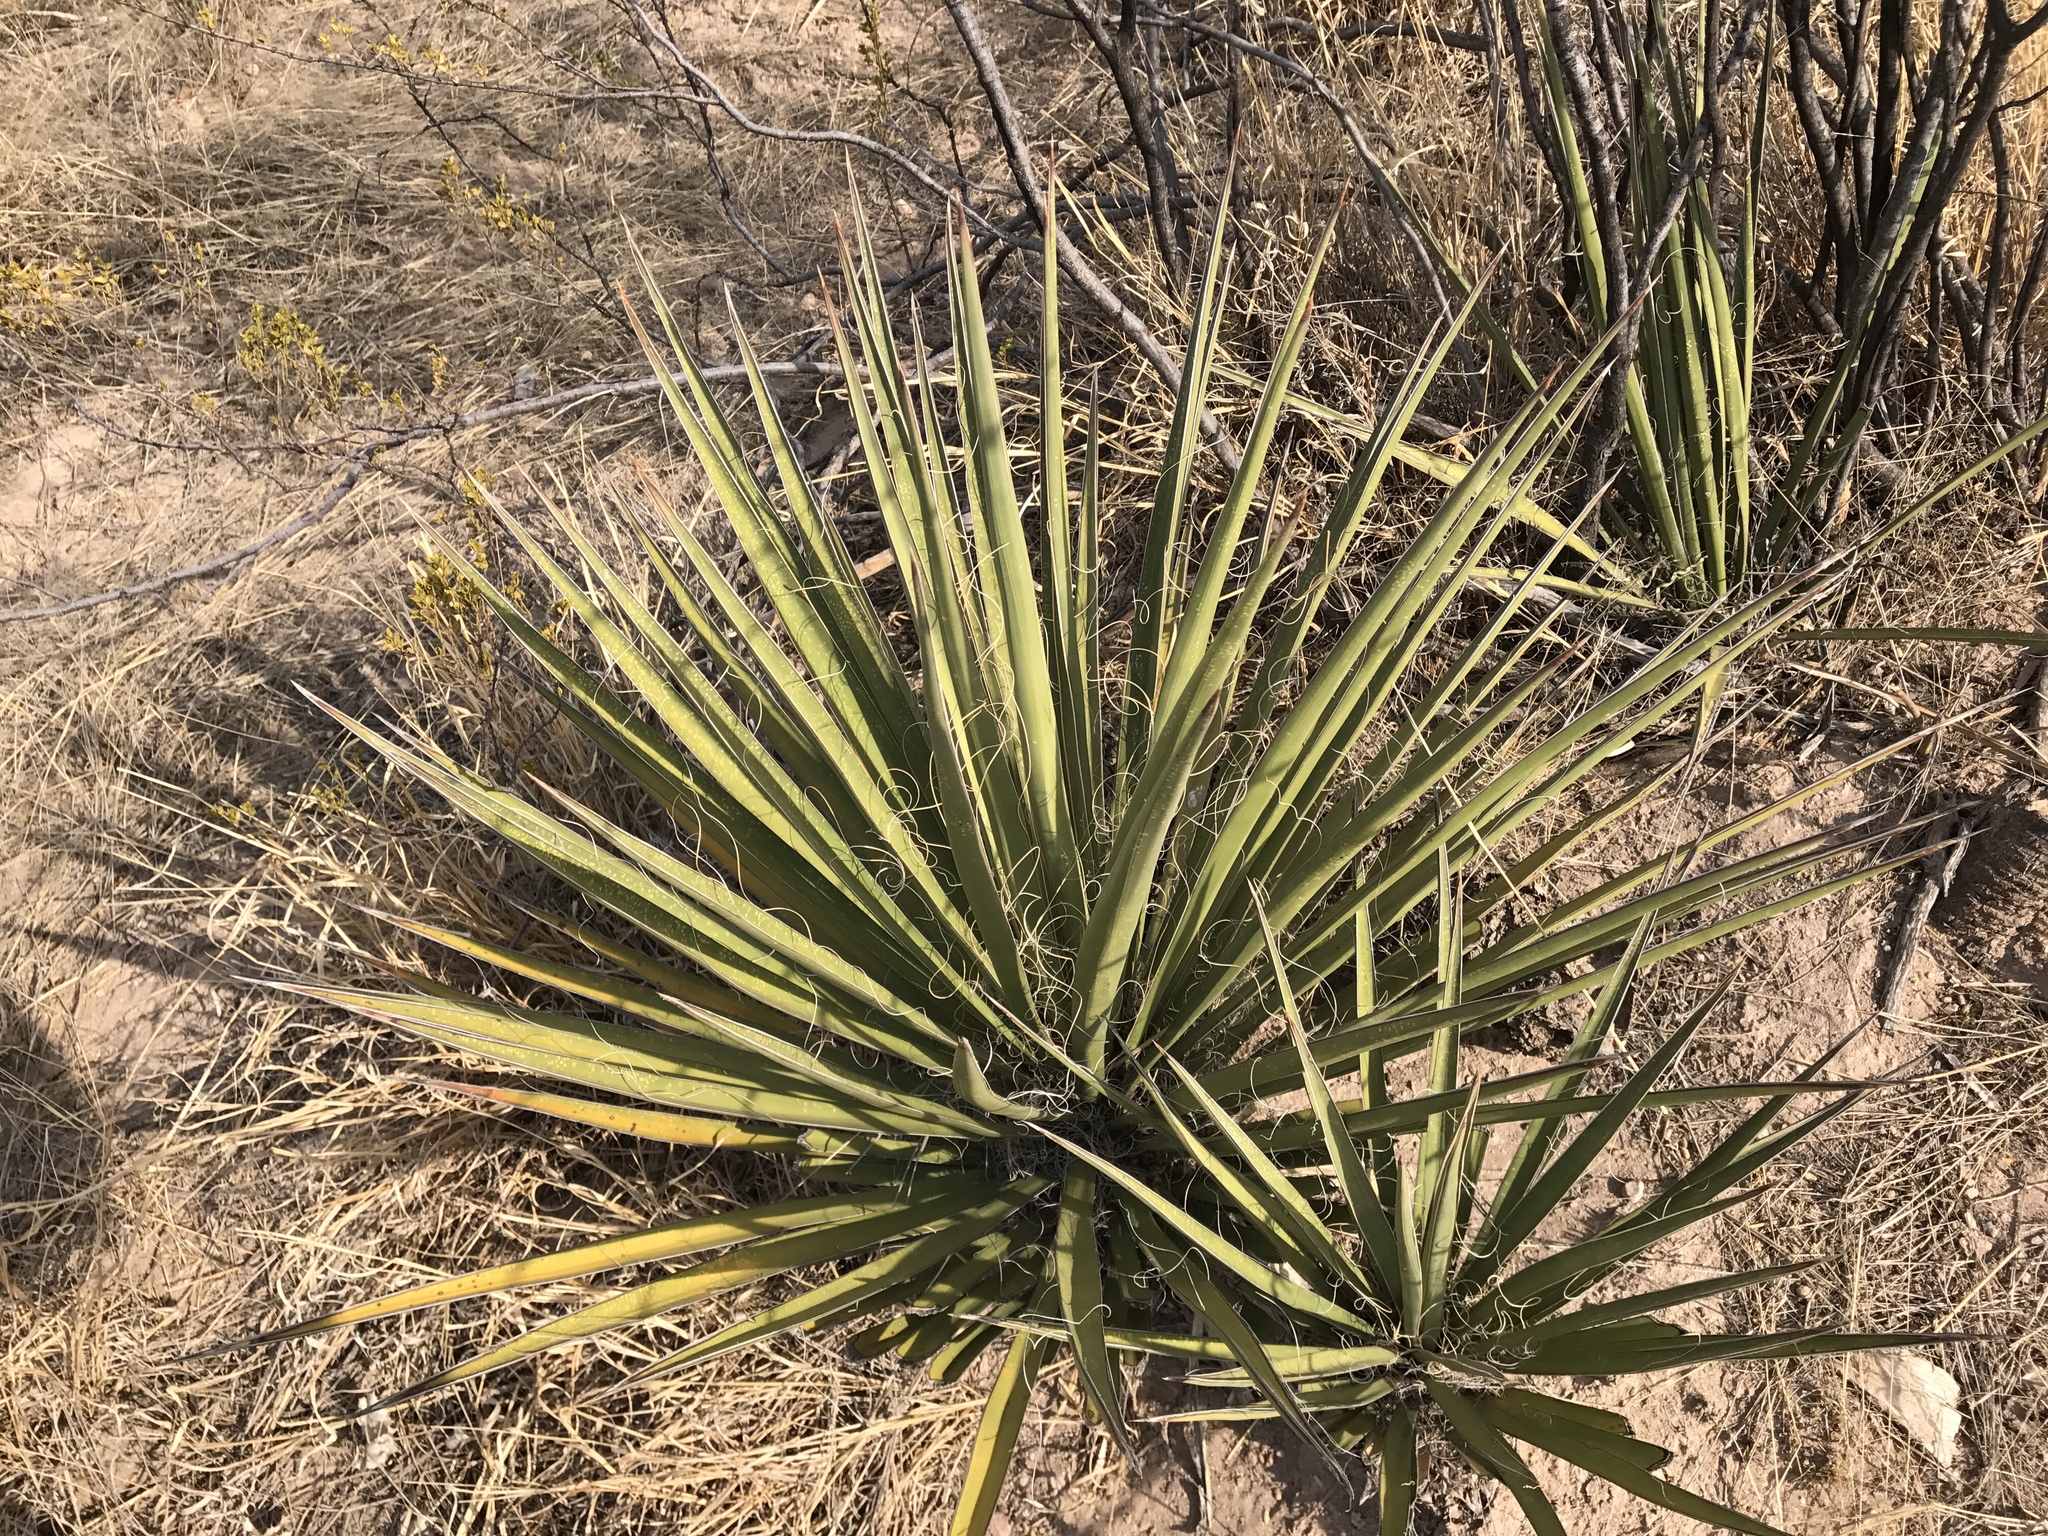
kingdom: Plantae
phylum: Tracheophyta
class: Liliopsida
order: Asparagales
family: Asparagaceae
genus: Yucca
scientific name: Yucca baccata
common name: Banana yucca
